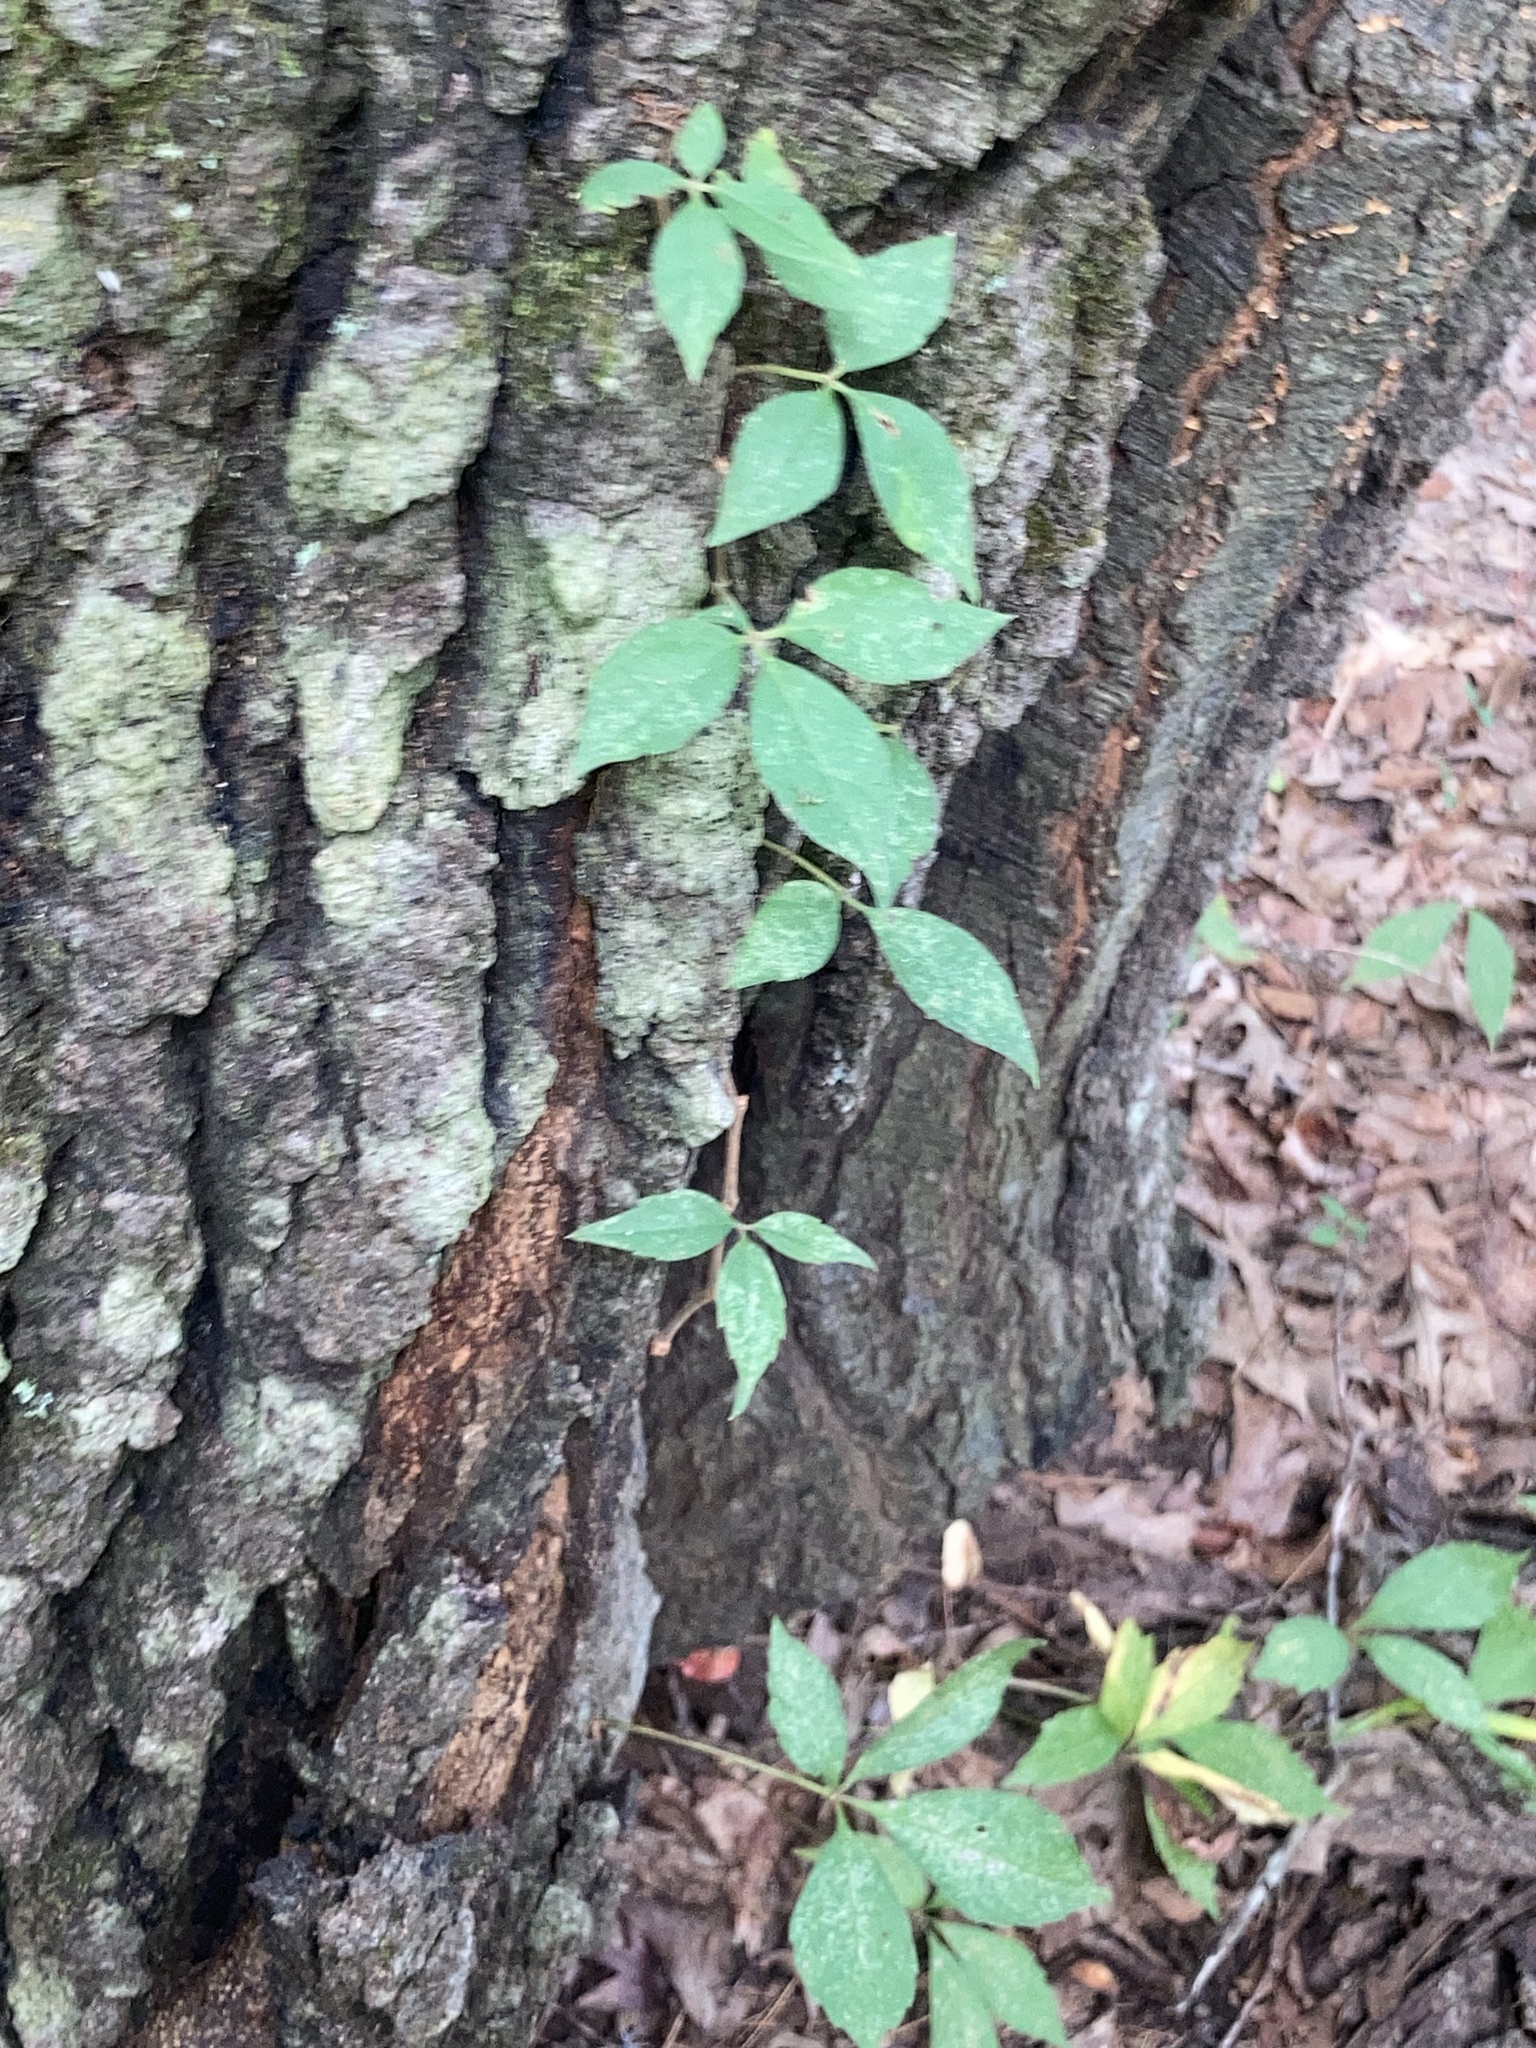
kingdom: Plantae
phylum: Tracheophyta
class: Magnoliopsida
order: Vitales
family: Vitaceae
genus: Parthenocissus
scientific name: Parthenocissus quinquefolia
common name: Virginia-creeper
